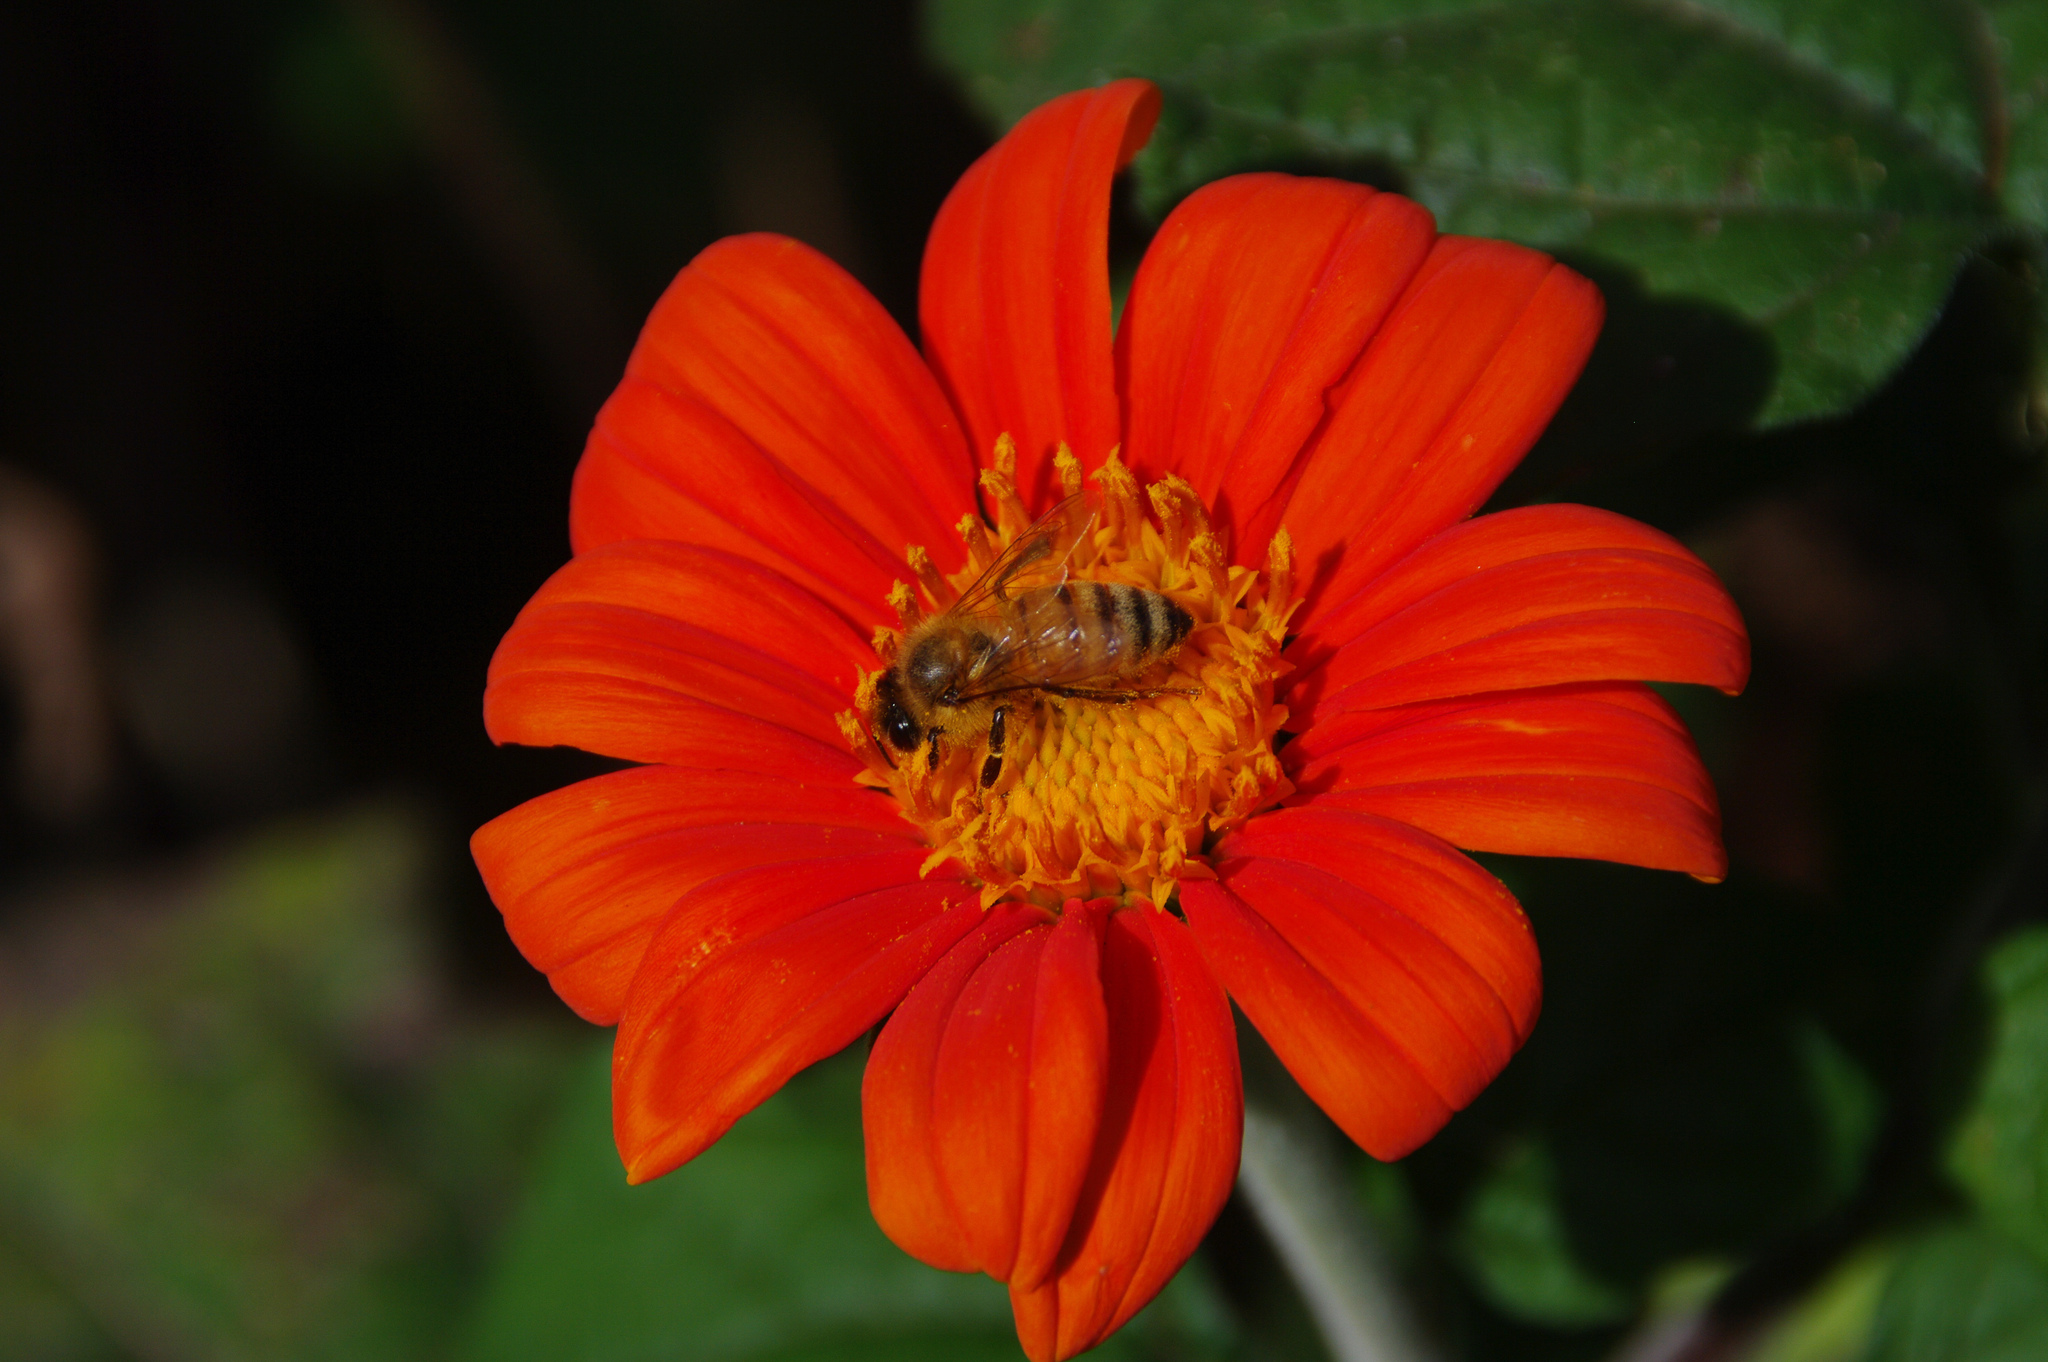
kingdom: Animalia
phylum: Arthropoda
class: Insecta
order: Hymenoptera
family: Apidae
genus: Apis
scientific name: Apis mellifera
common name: Honey bee
